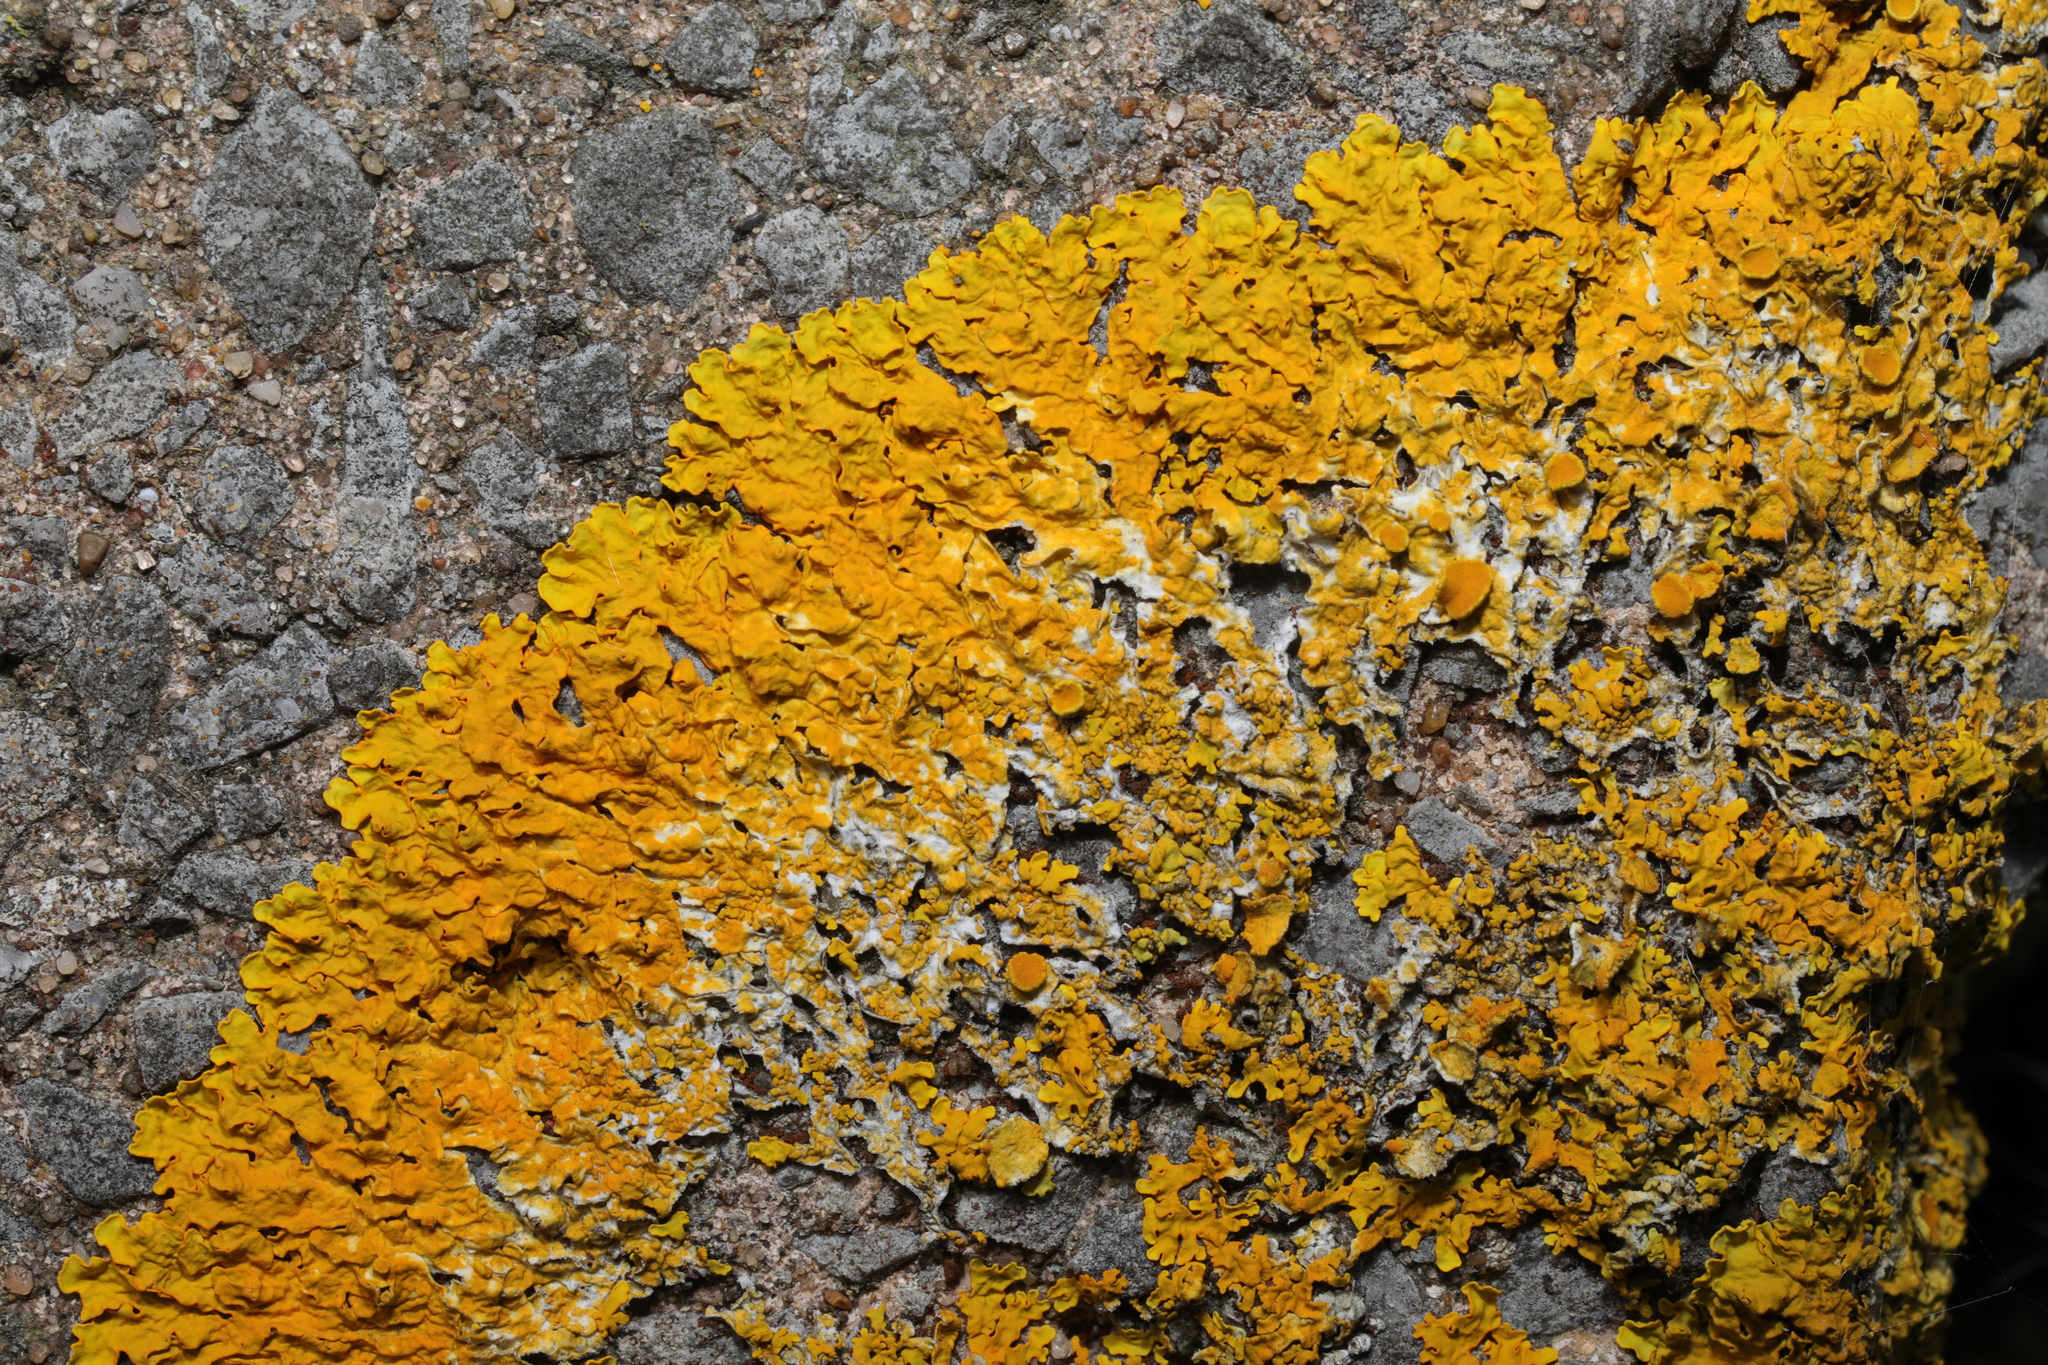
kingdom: Fungi
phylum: Ascomycota
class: Lecanoromycetes
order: Teloschistales
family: Teloschistaceae
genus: Xanthoria
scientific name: Xanthoria parietina
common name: Common orange lichen
